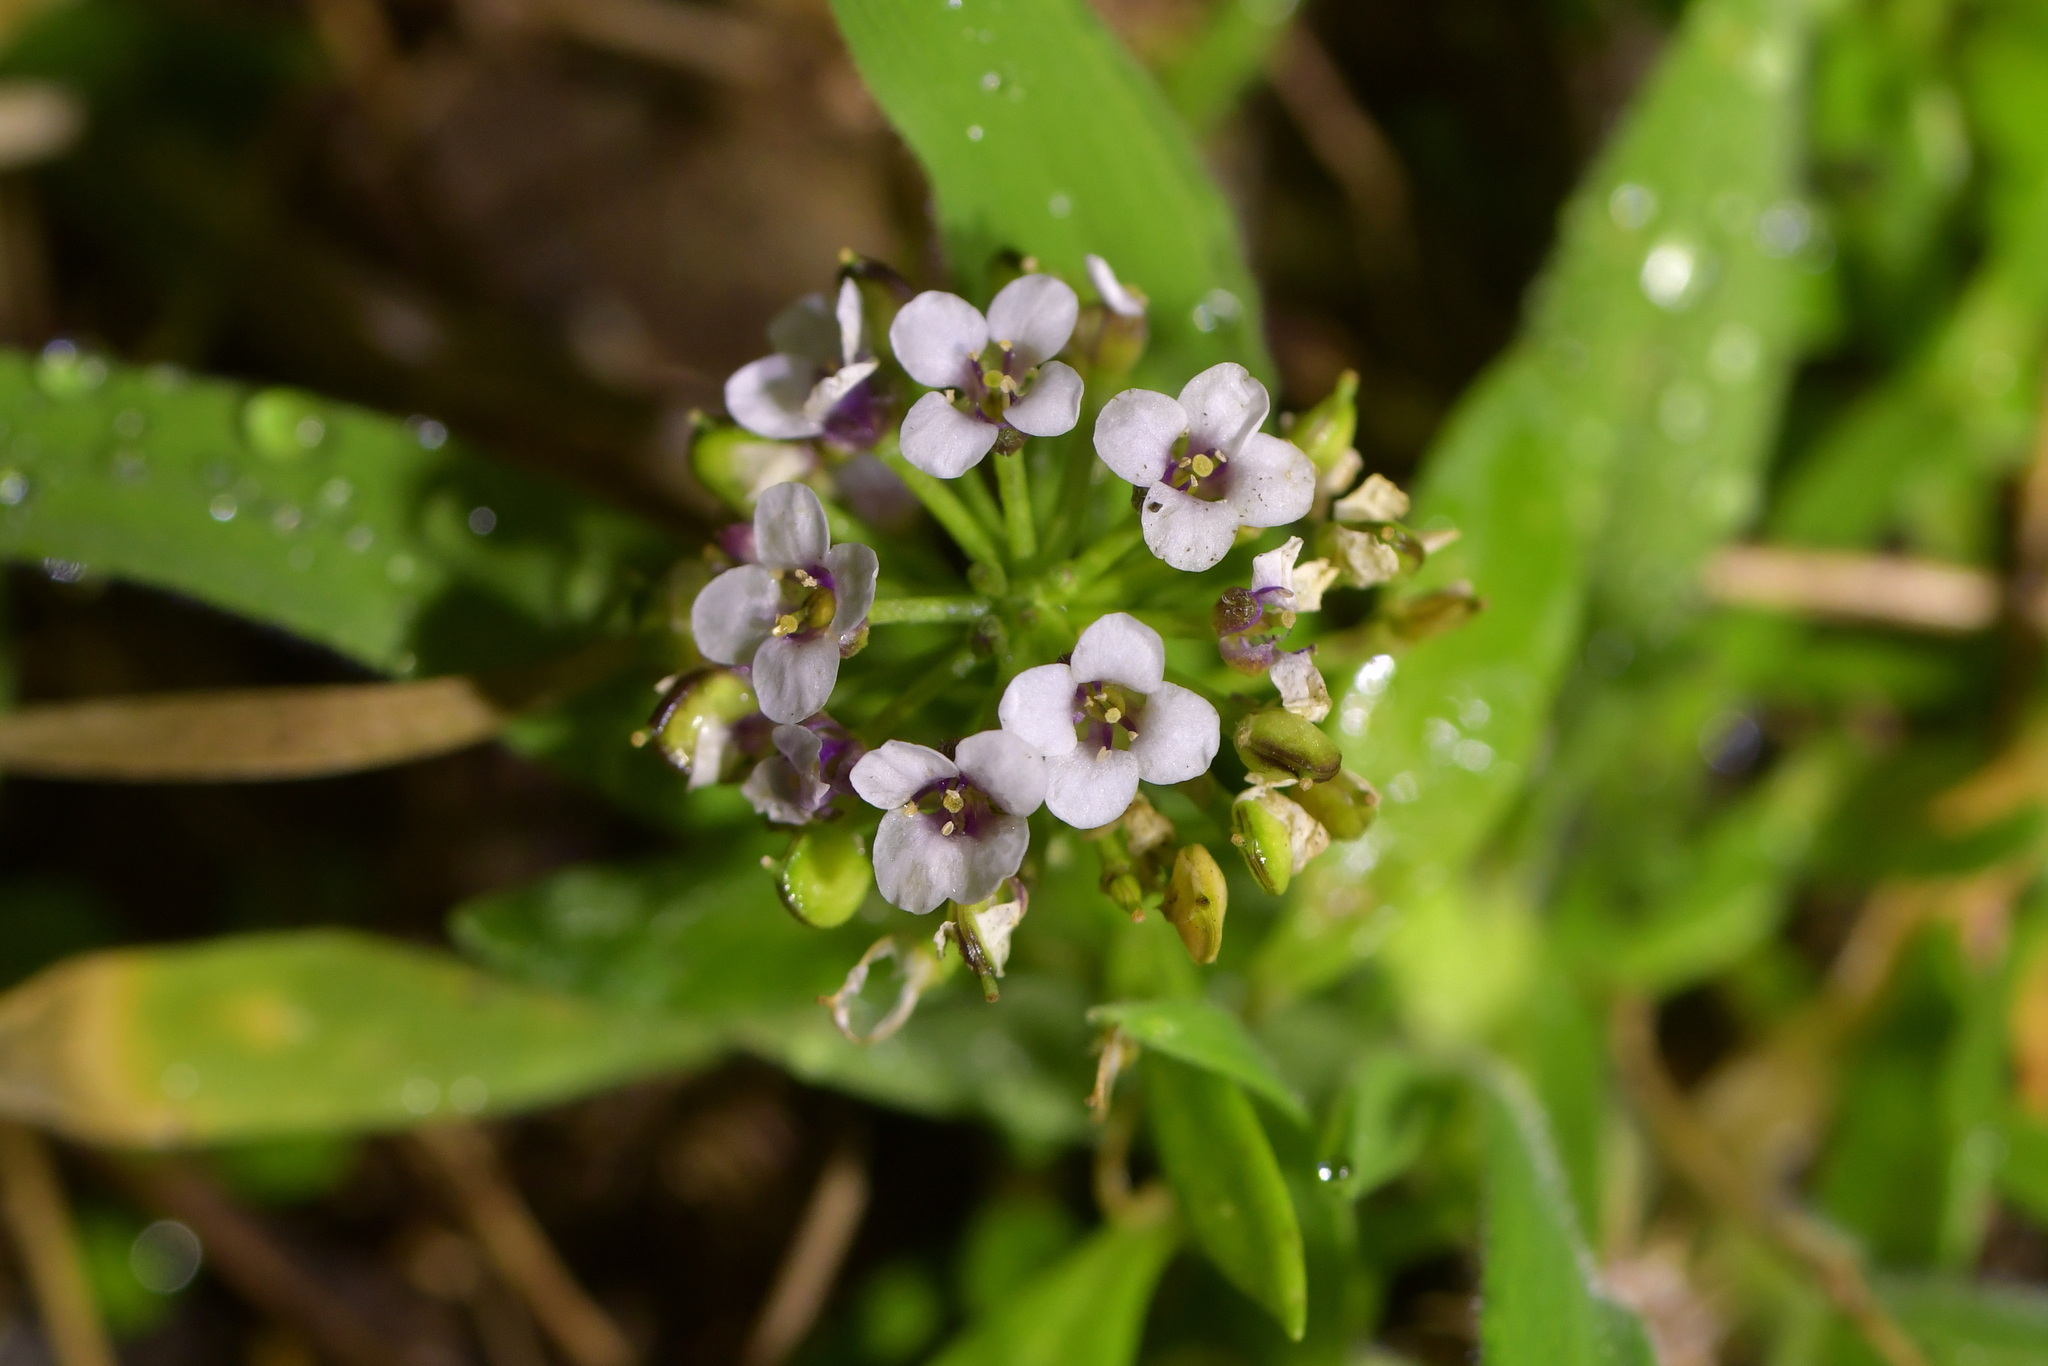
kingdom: Plantae
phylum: Tracheophyta
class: Magnoliopsida
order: Brassicales
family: Brassicaceae
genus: Lobularia
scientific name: Lobularia maritima
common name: Sweet alison
